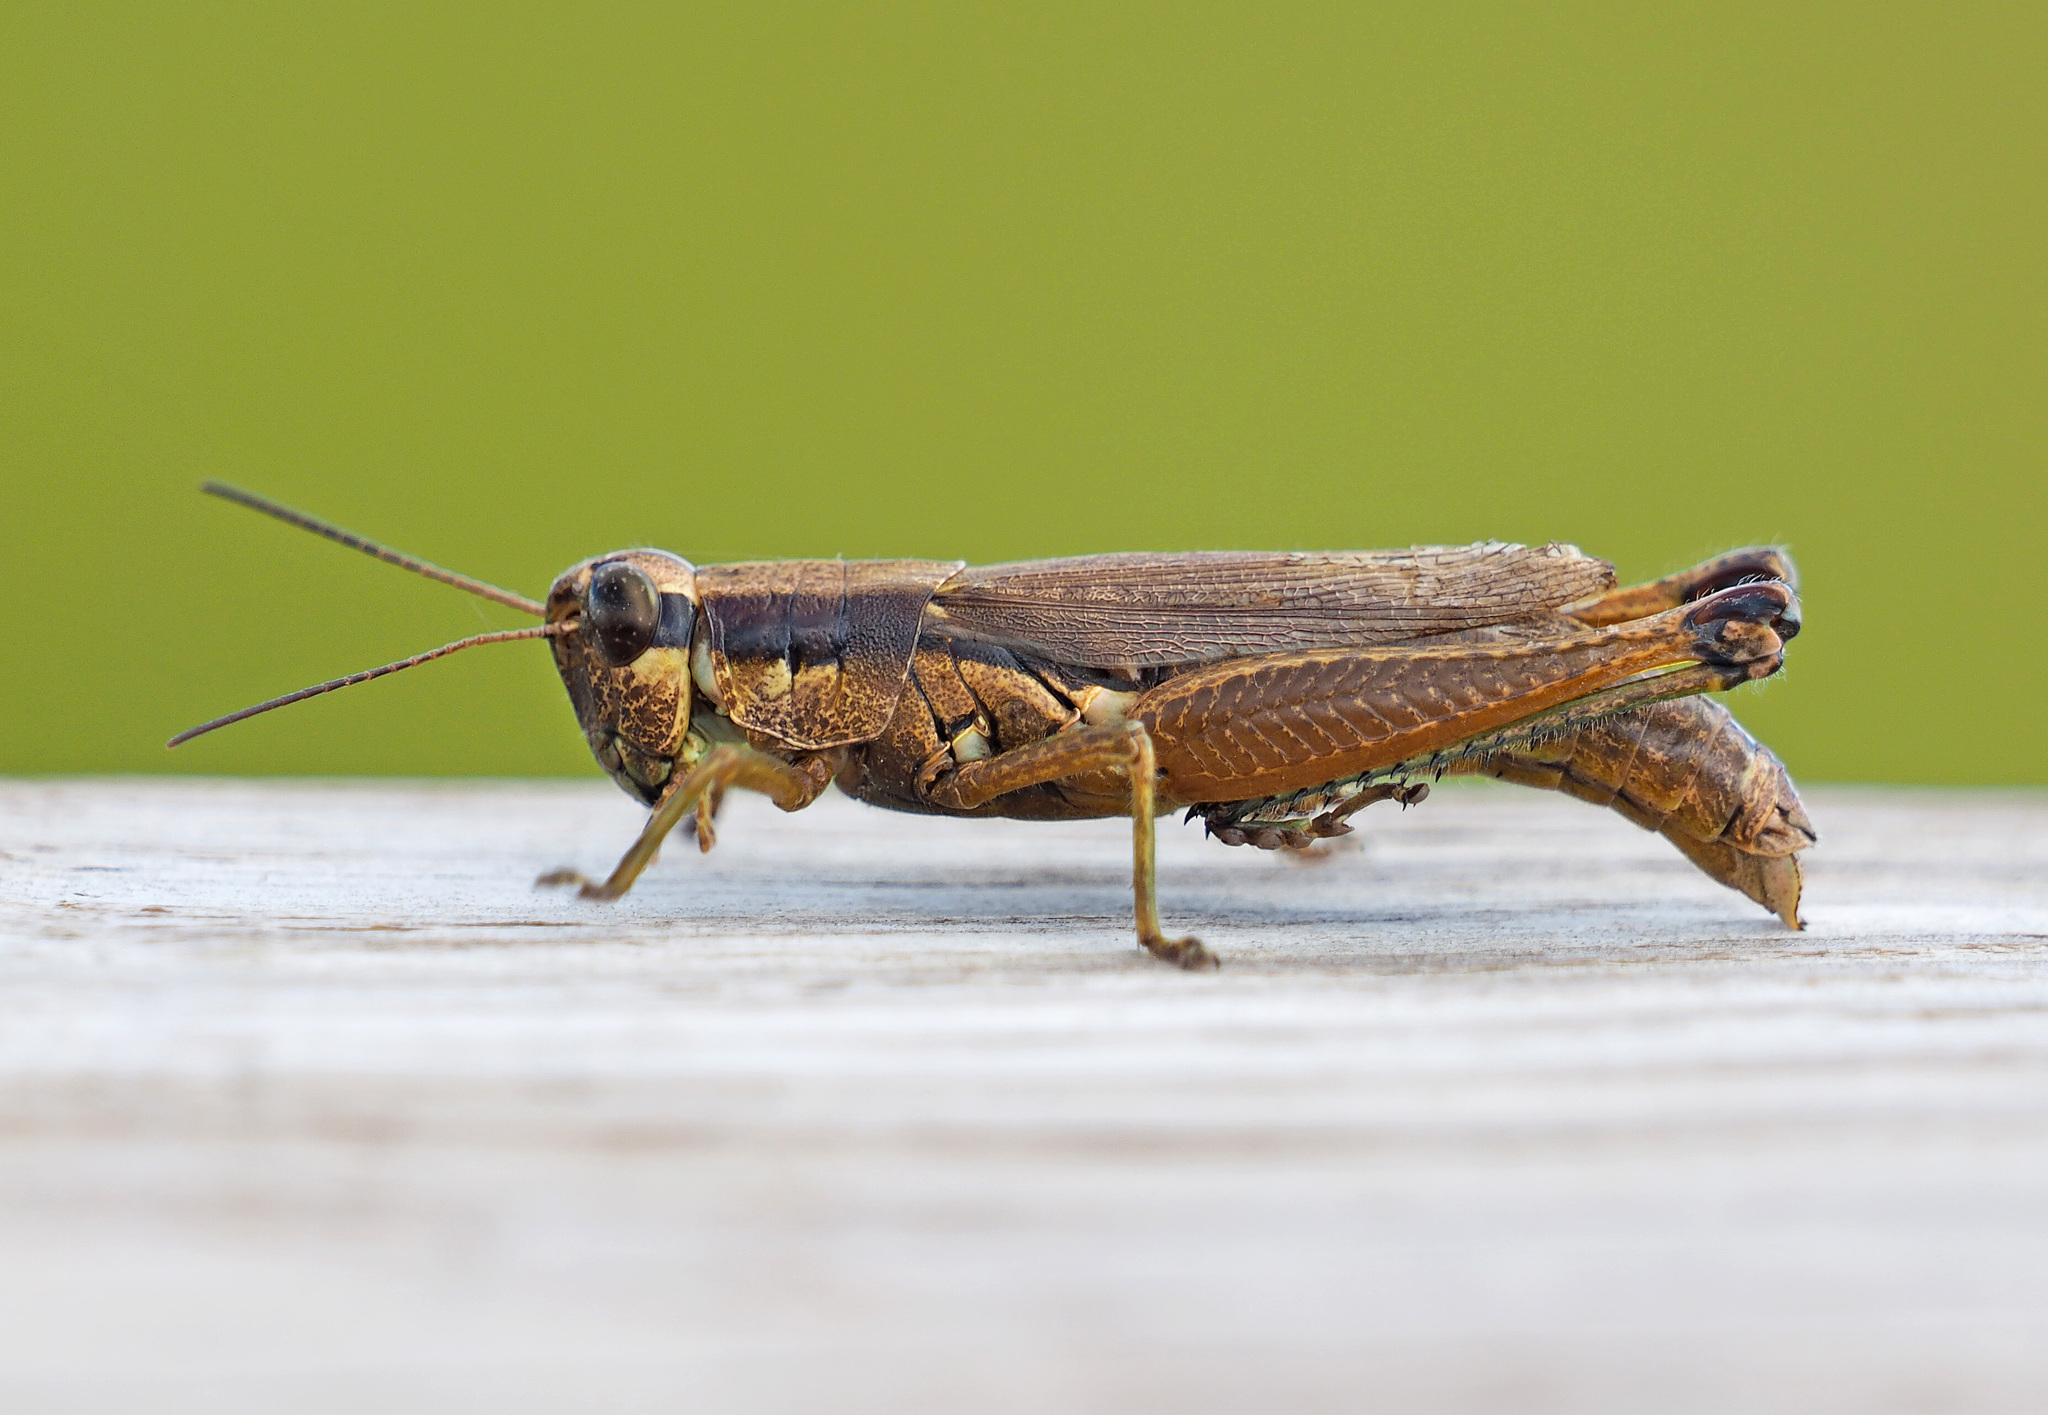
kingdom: Animalia
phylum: Arthropoda
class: Insecta
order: Orthoptera
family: Acrididae
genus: Paroxya
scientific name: Paroxya clavuligera
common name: Olive-green swamp grasshopper
